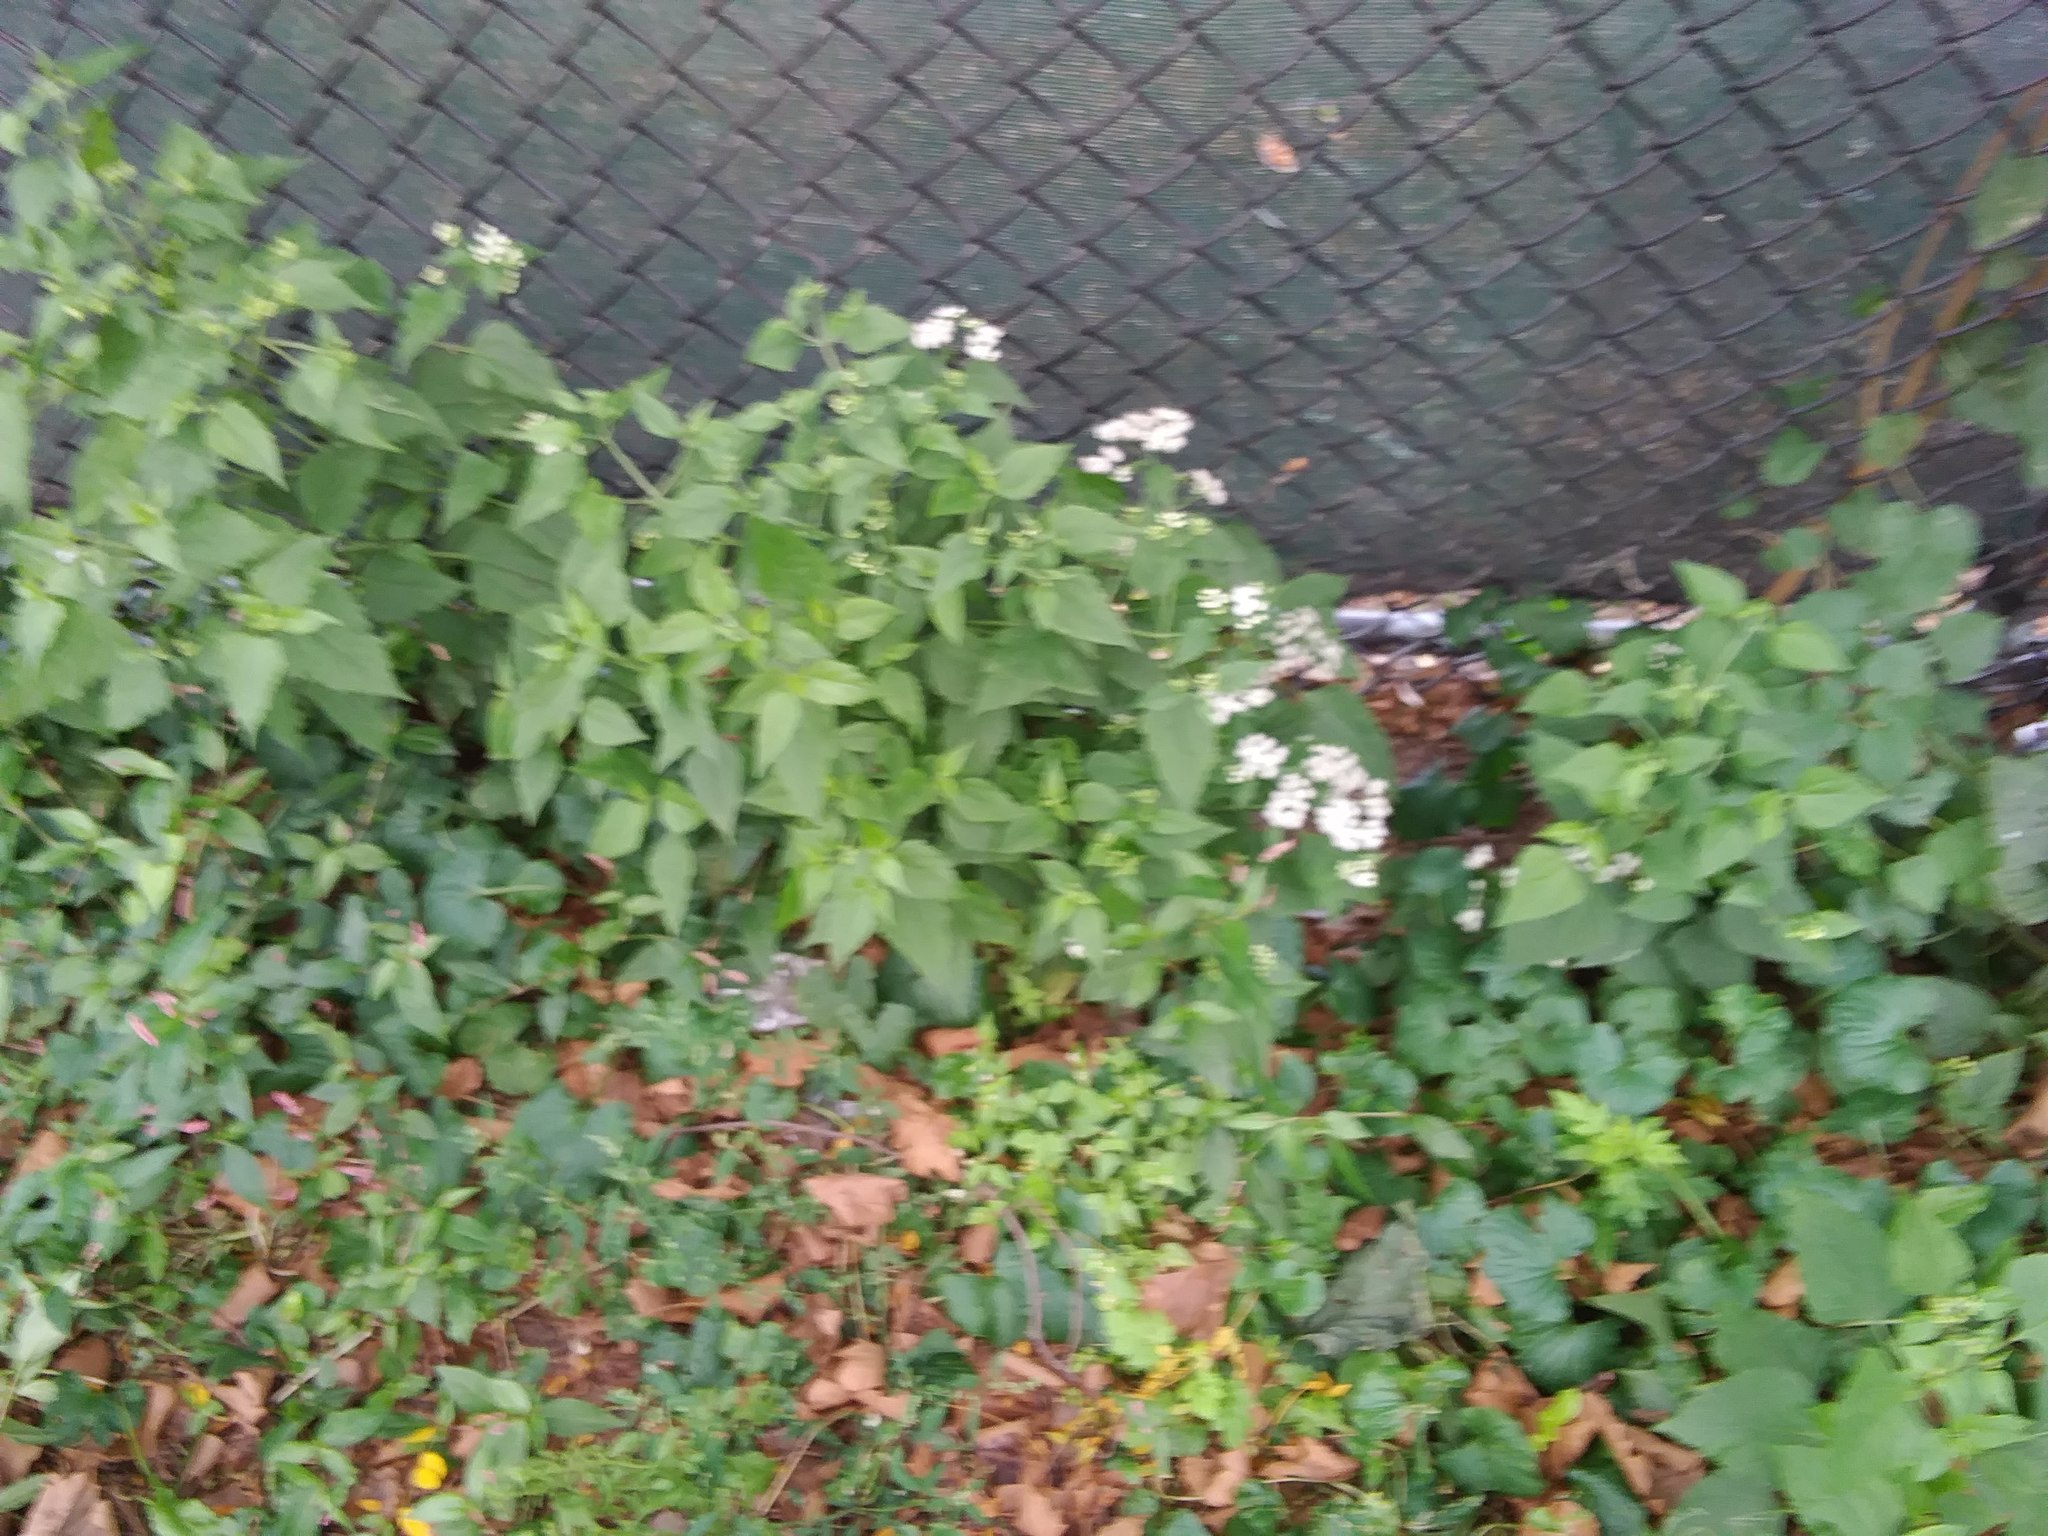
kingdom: Plantae
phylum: Tracheophyta
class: Magnoliopsida
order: Asterales
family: Asteraceae
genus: Ageratina
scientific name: Ageratina altissima
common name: White snakeroot
